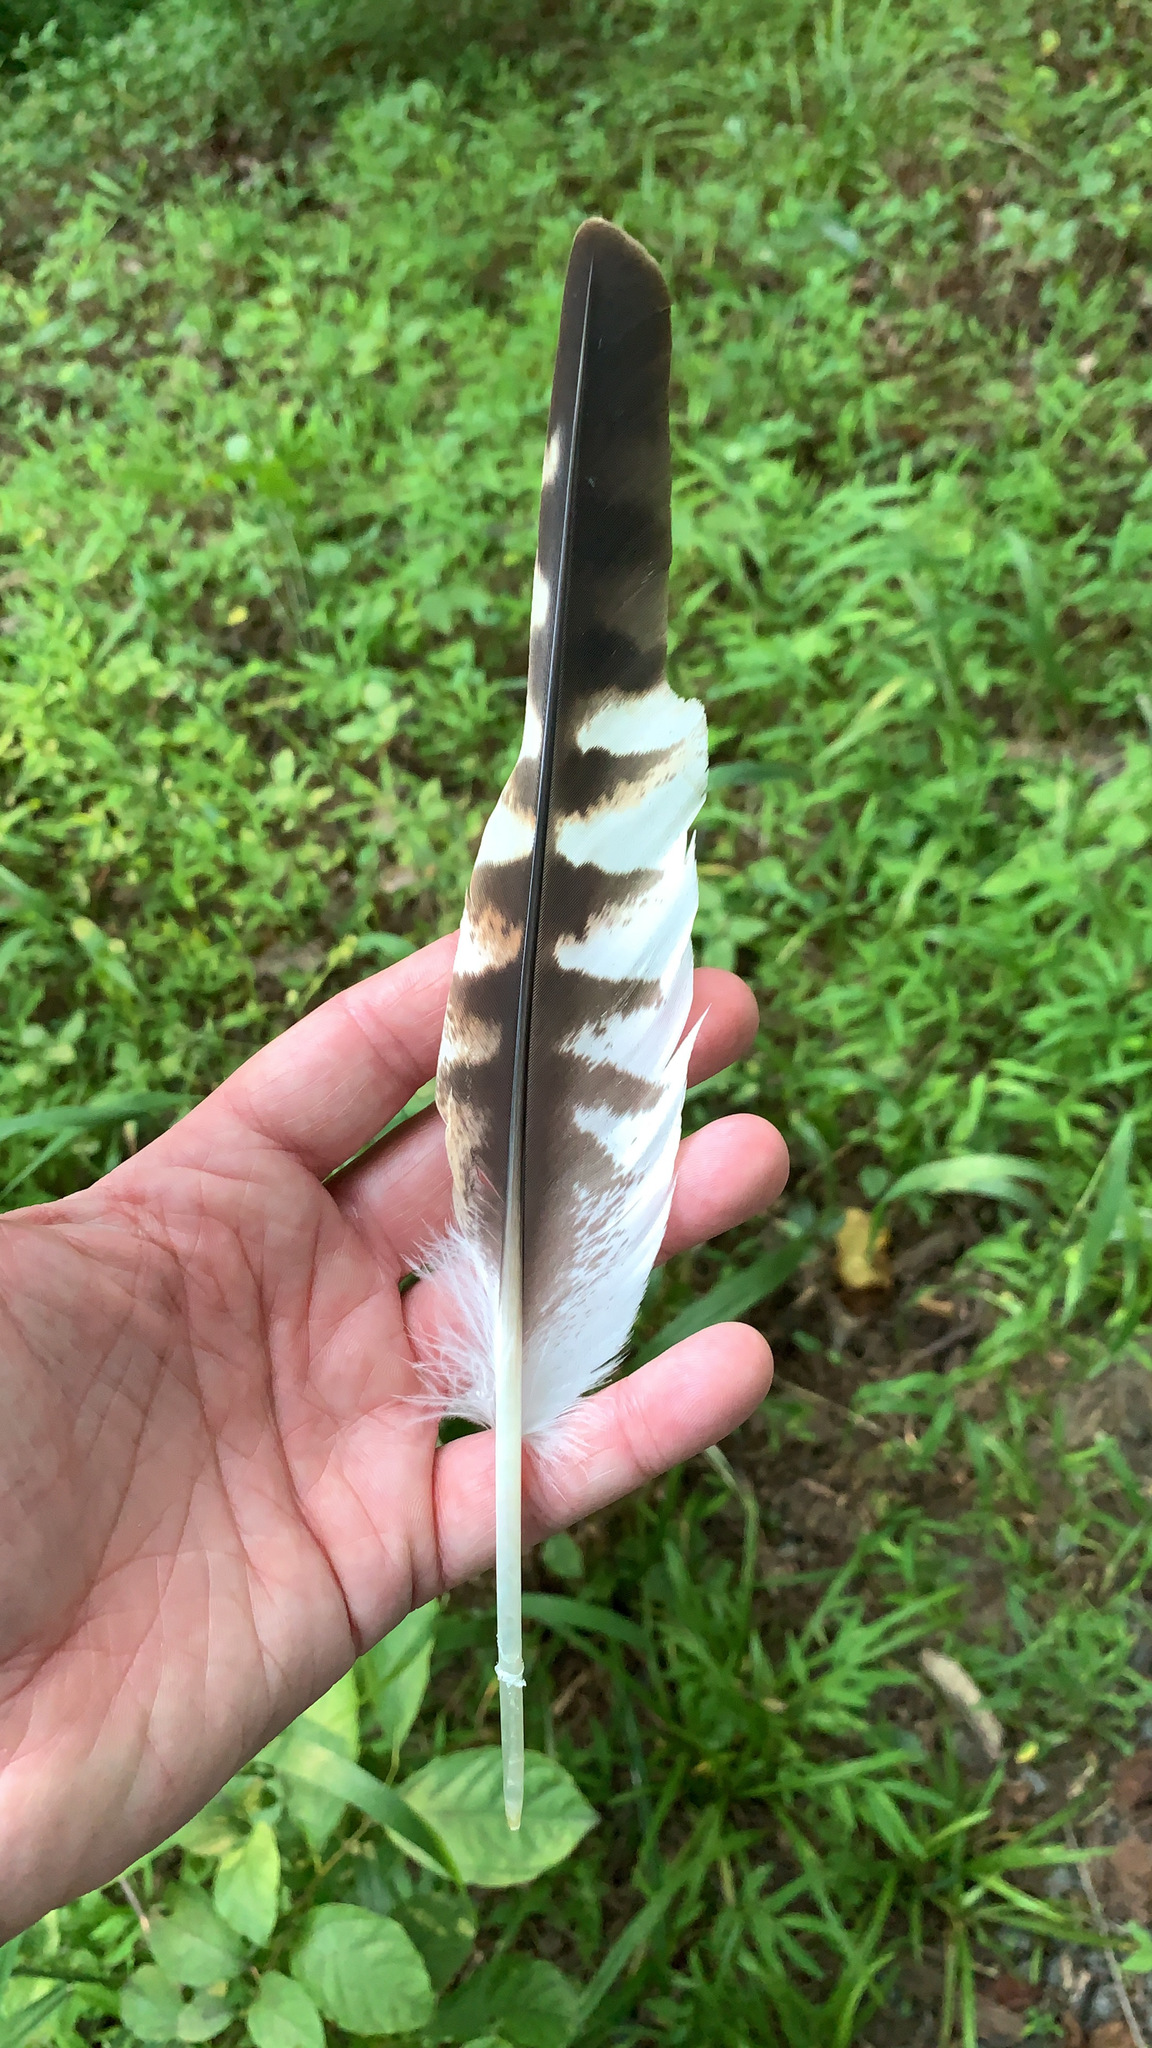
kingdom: Animalia
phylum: Chordata
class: Aves
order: Accipitriformes
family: Accipitridae
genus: Buteo
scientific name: Buteo lineatus
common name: Red-shouldered hawk
